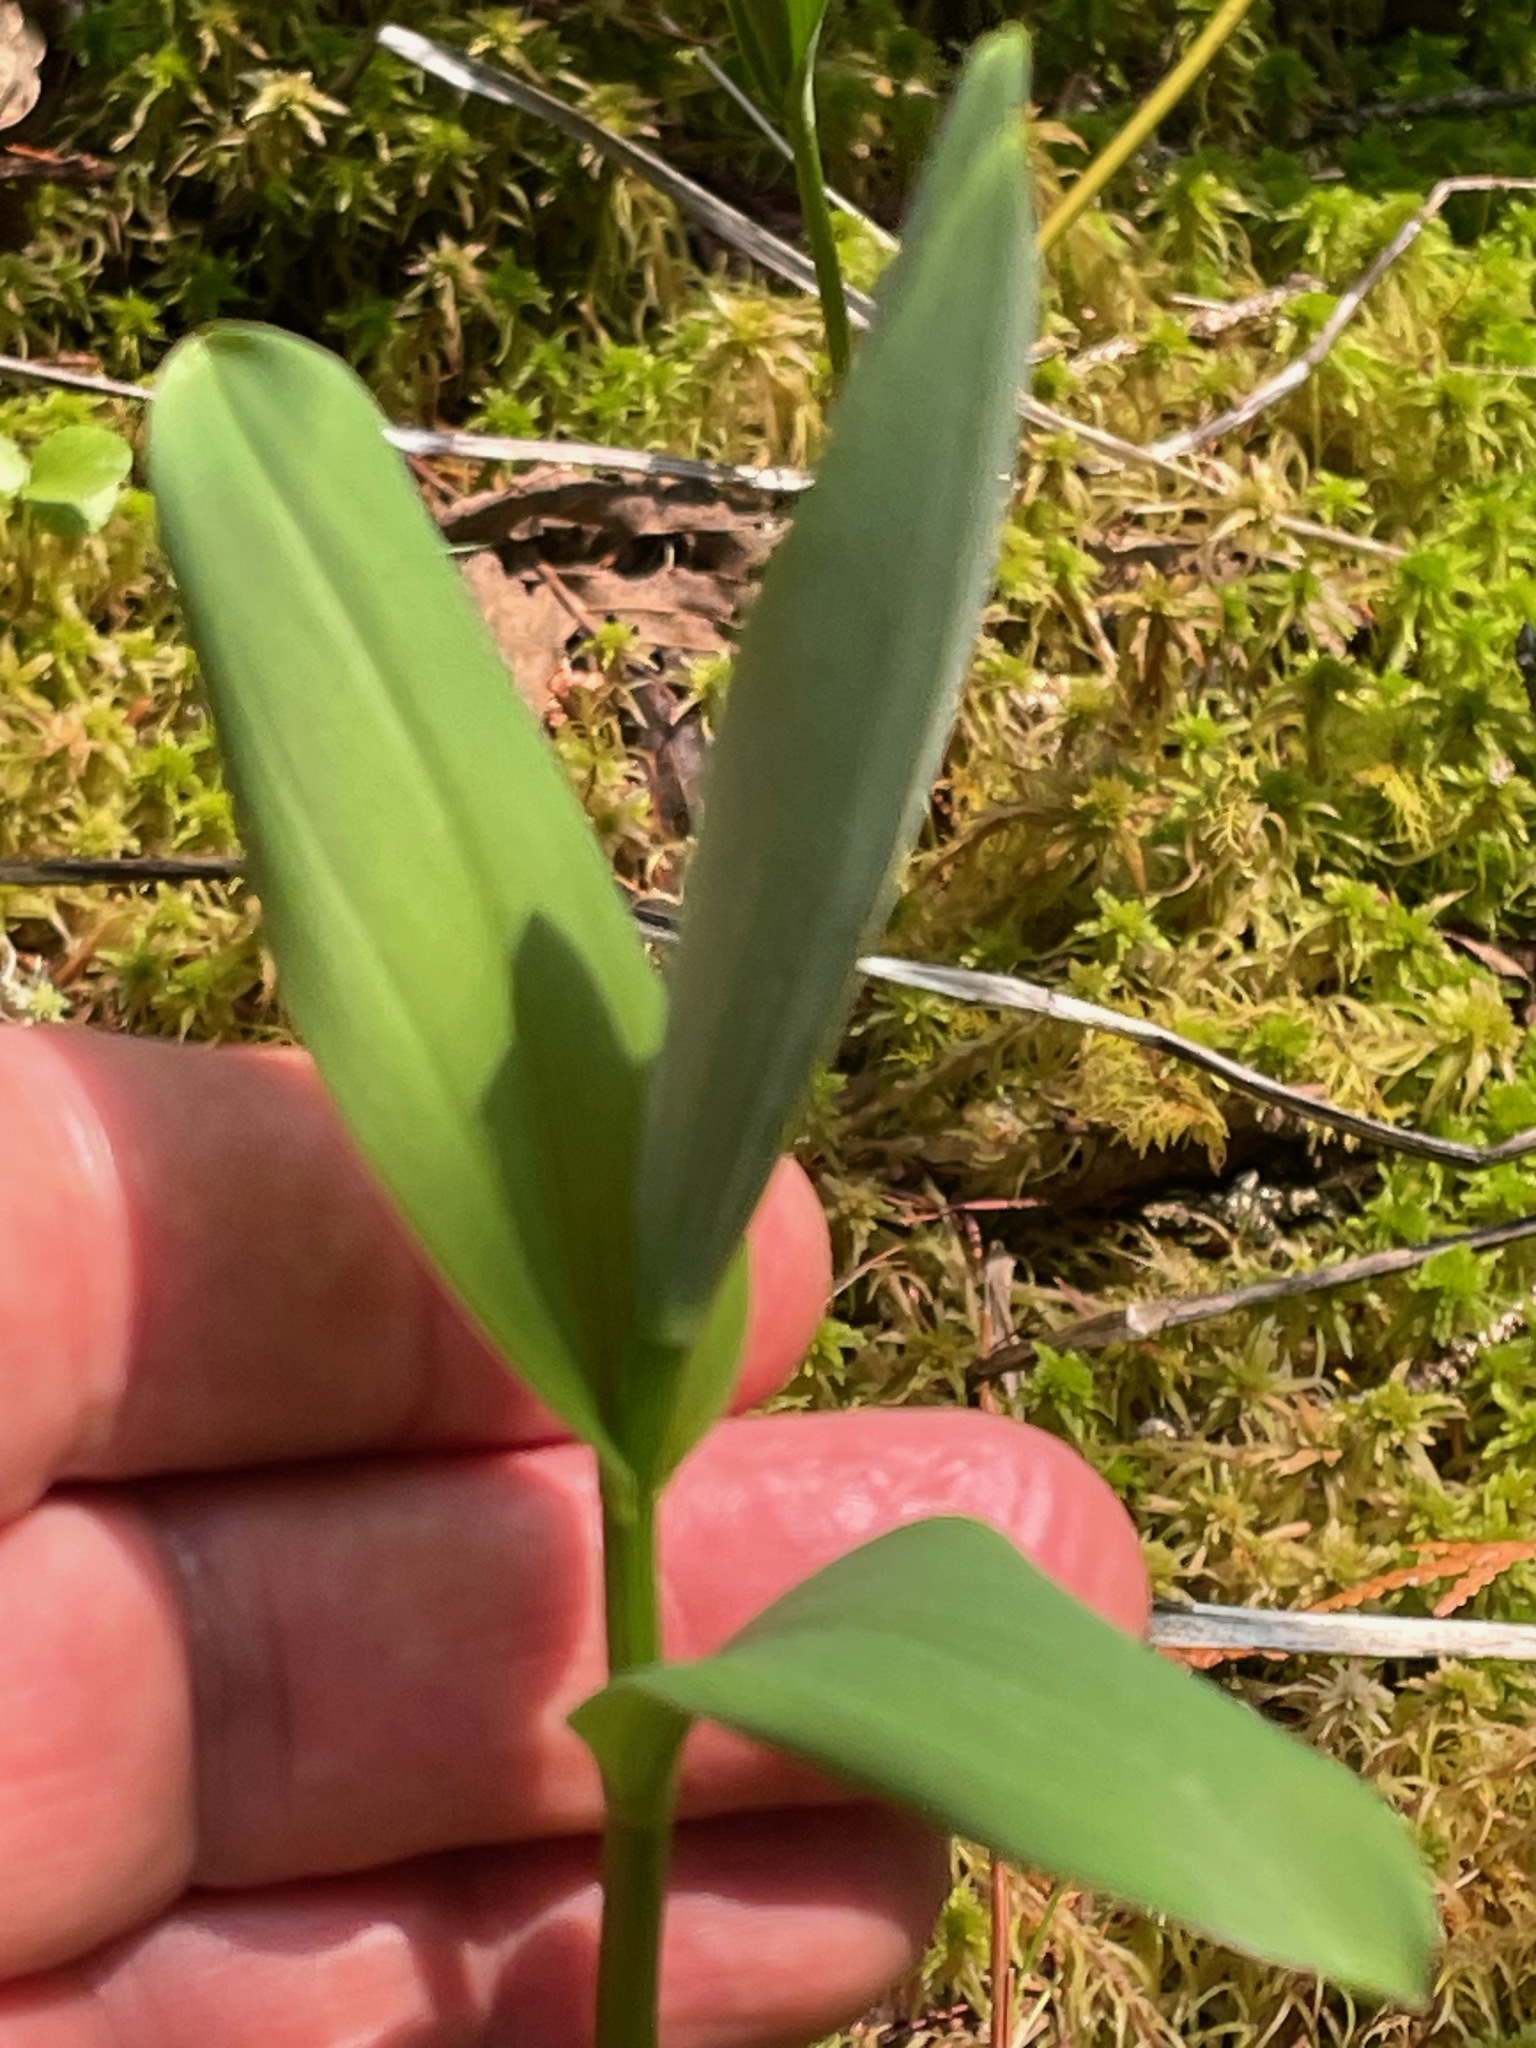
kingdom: Plantae
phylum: Tracheophyta
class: Liliopsida
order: Asparagales
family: Asparagaceae
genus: Maianthemum
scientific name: Maianthemum stellatum
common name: Little false solomon's seal
